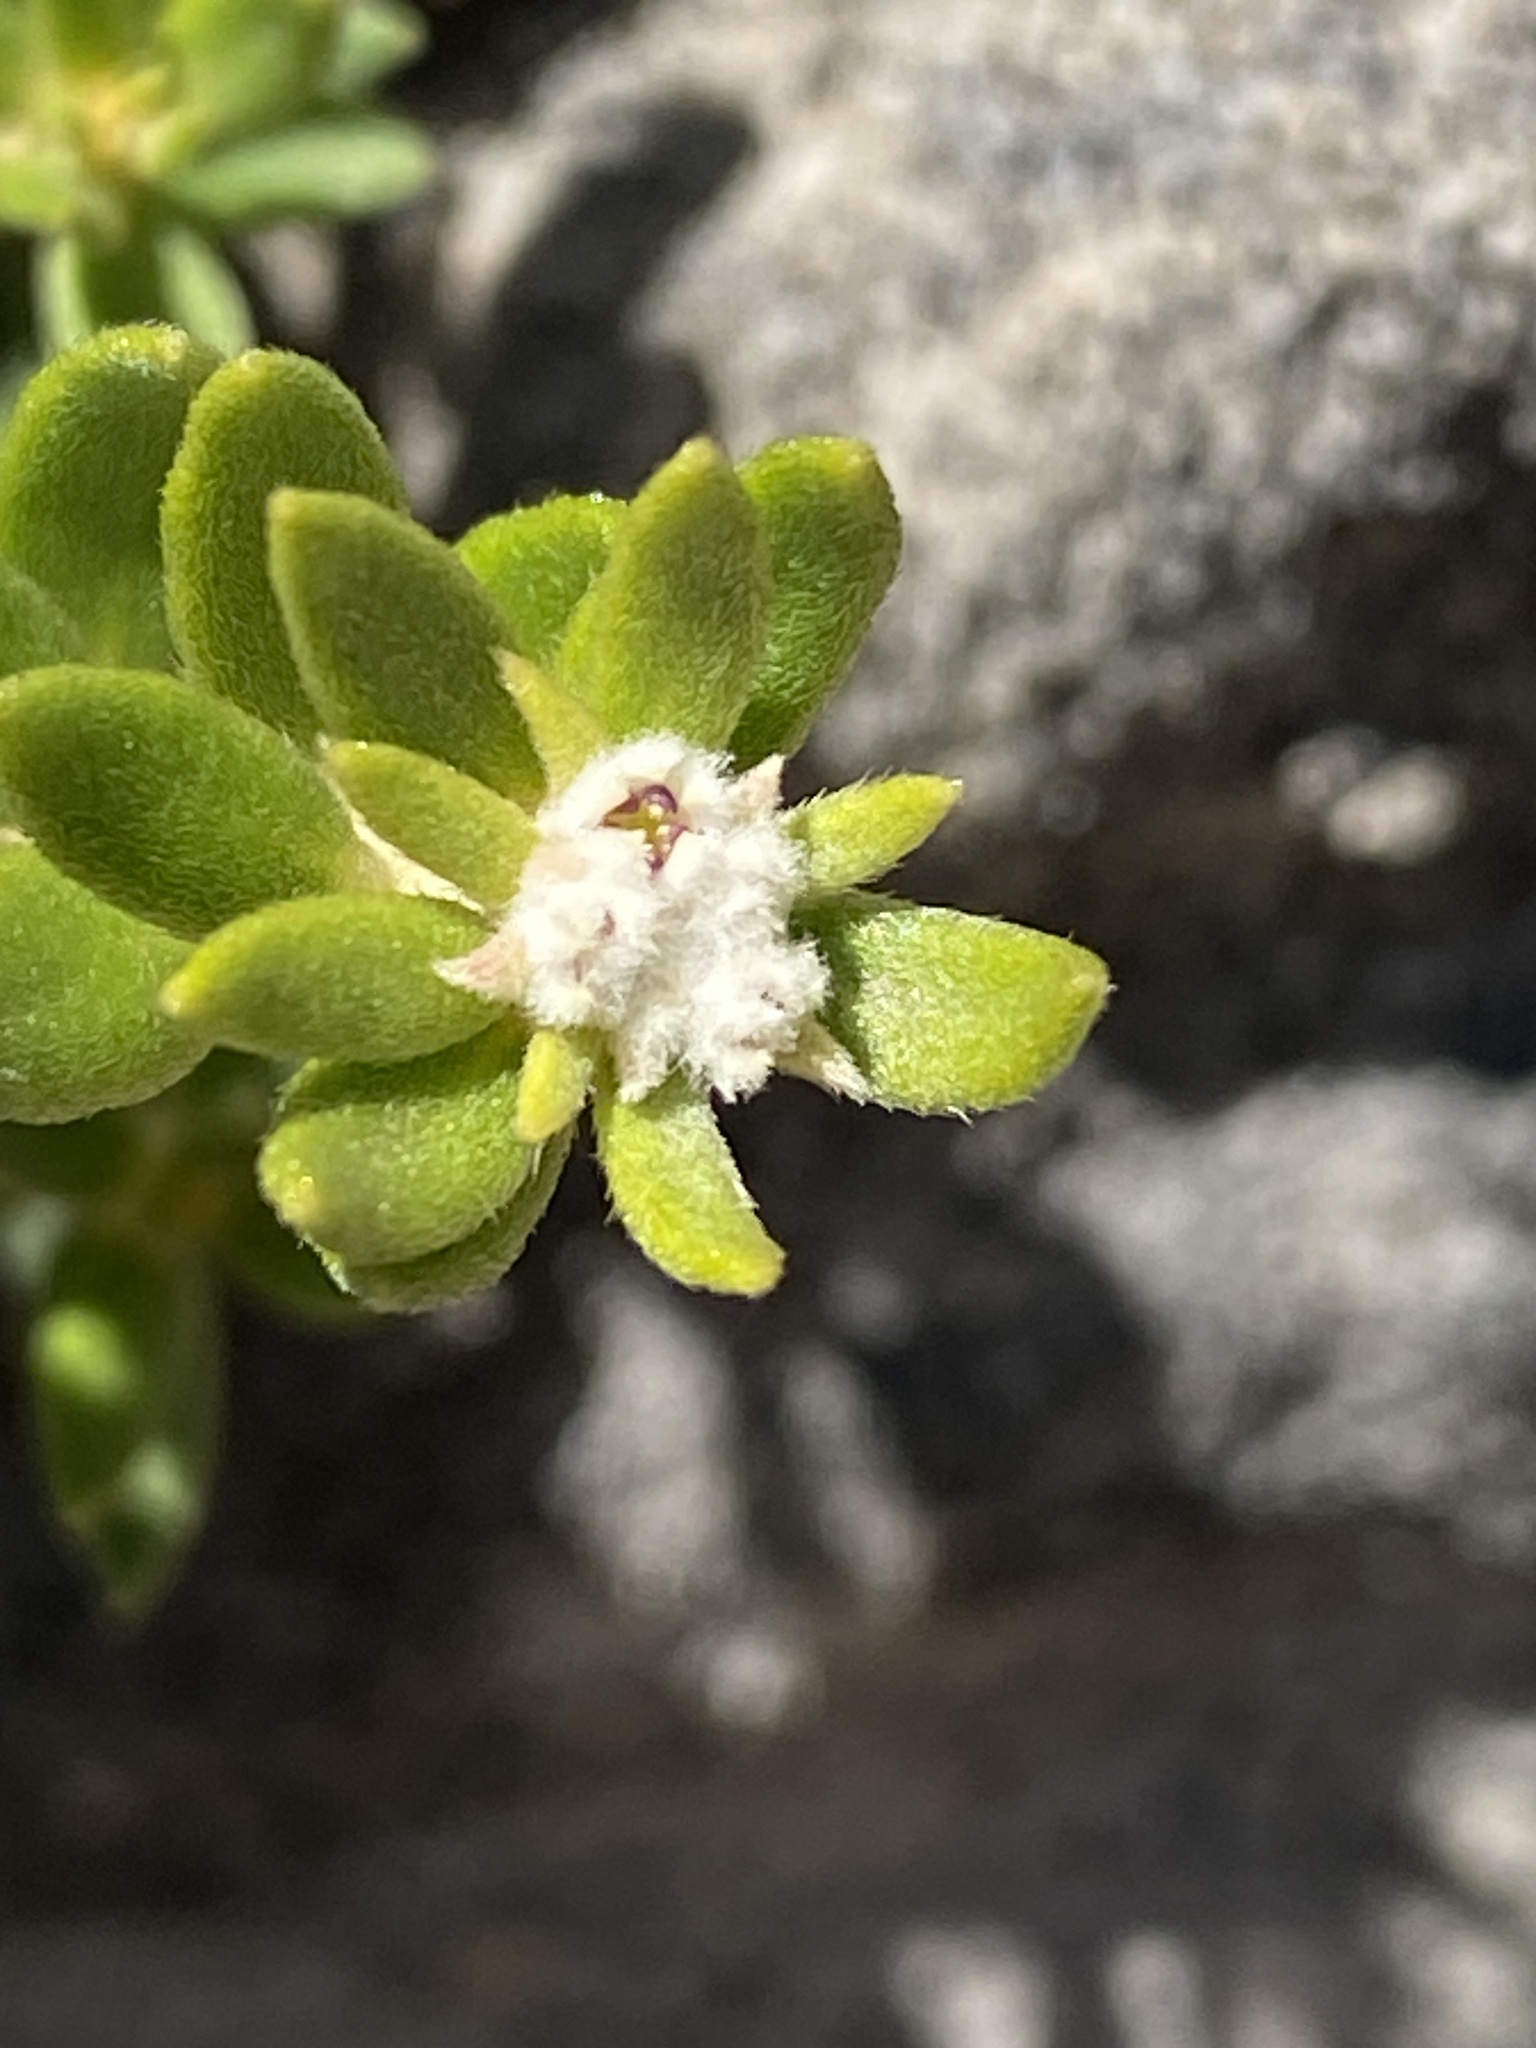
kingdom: Plantae
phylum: Tracheophyta
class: Magnoliopsida
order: Rosales
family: Rhamnaceae
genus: Phylica
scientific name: Phylica fruticosa
